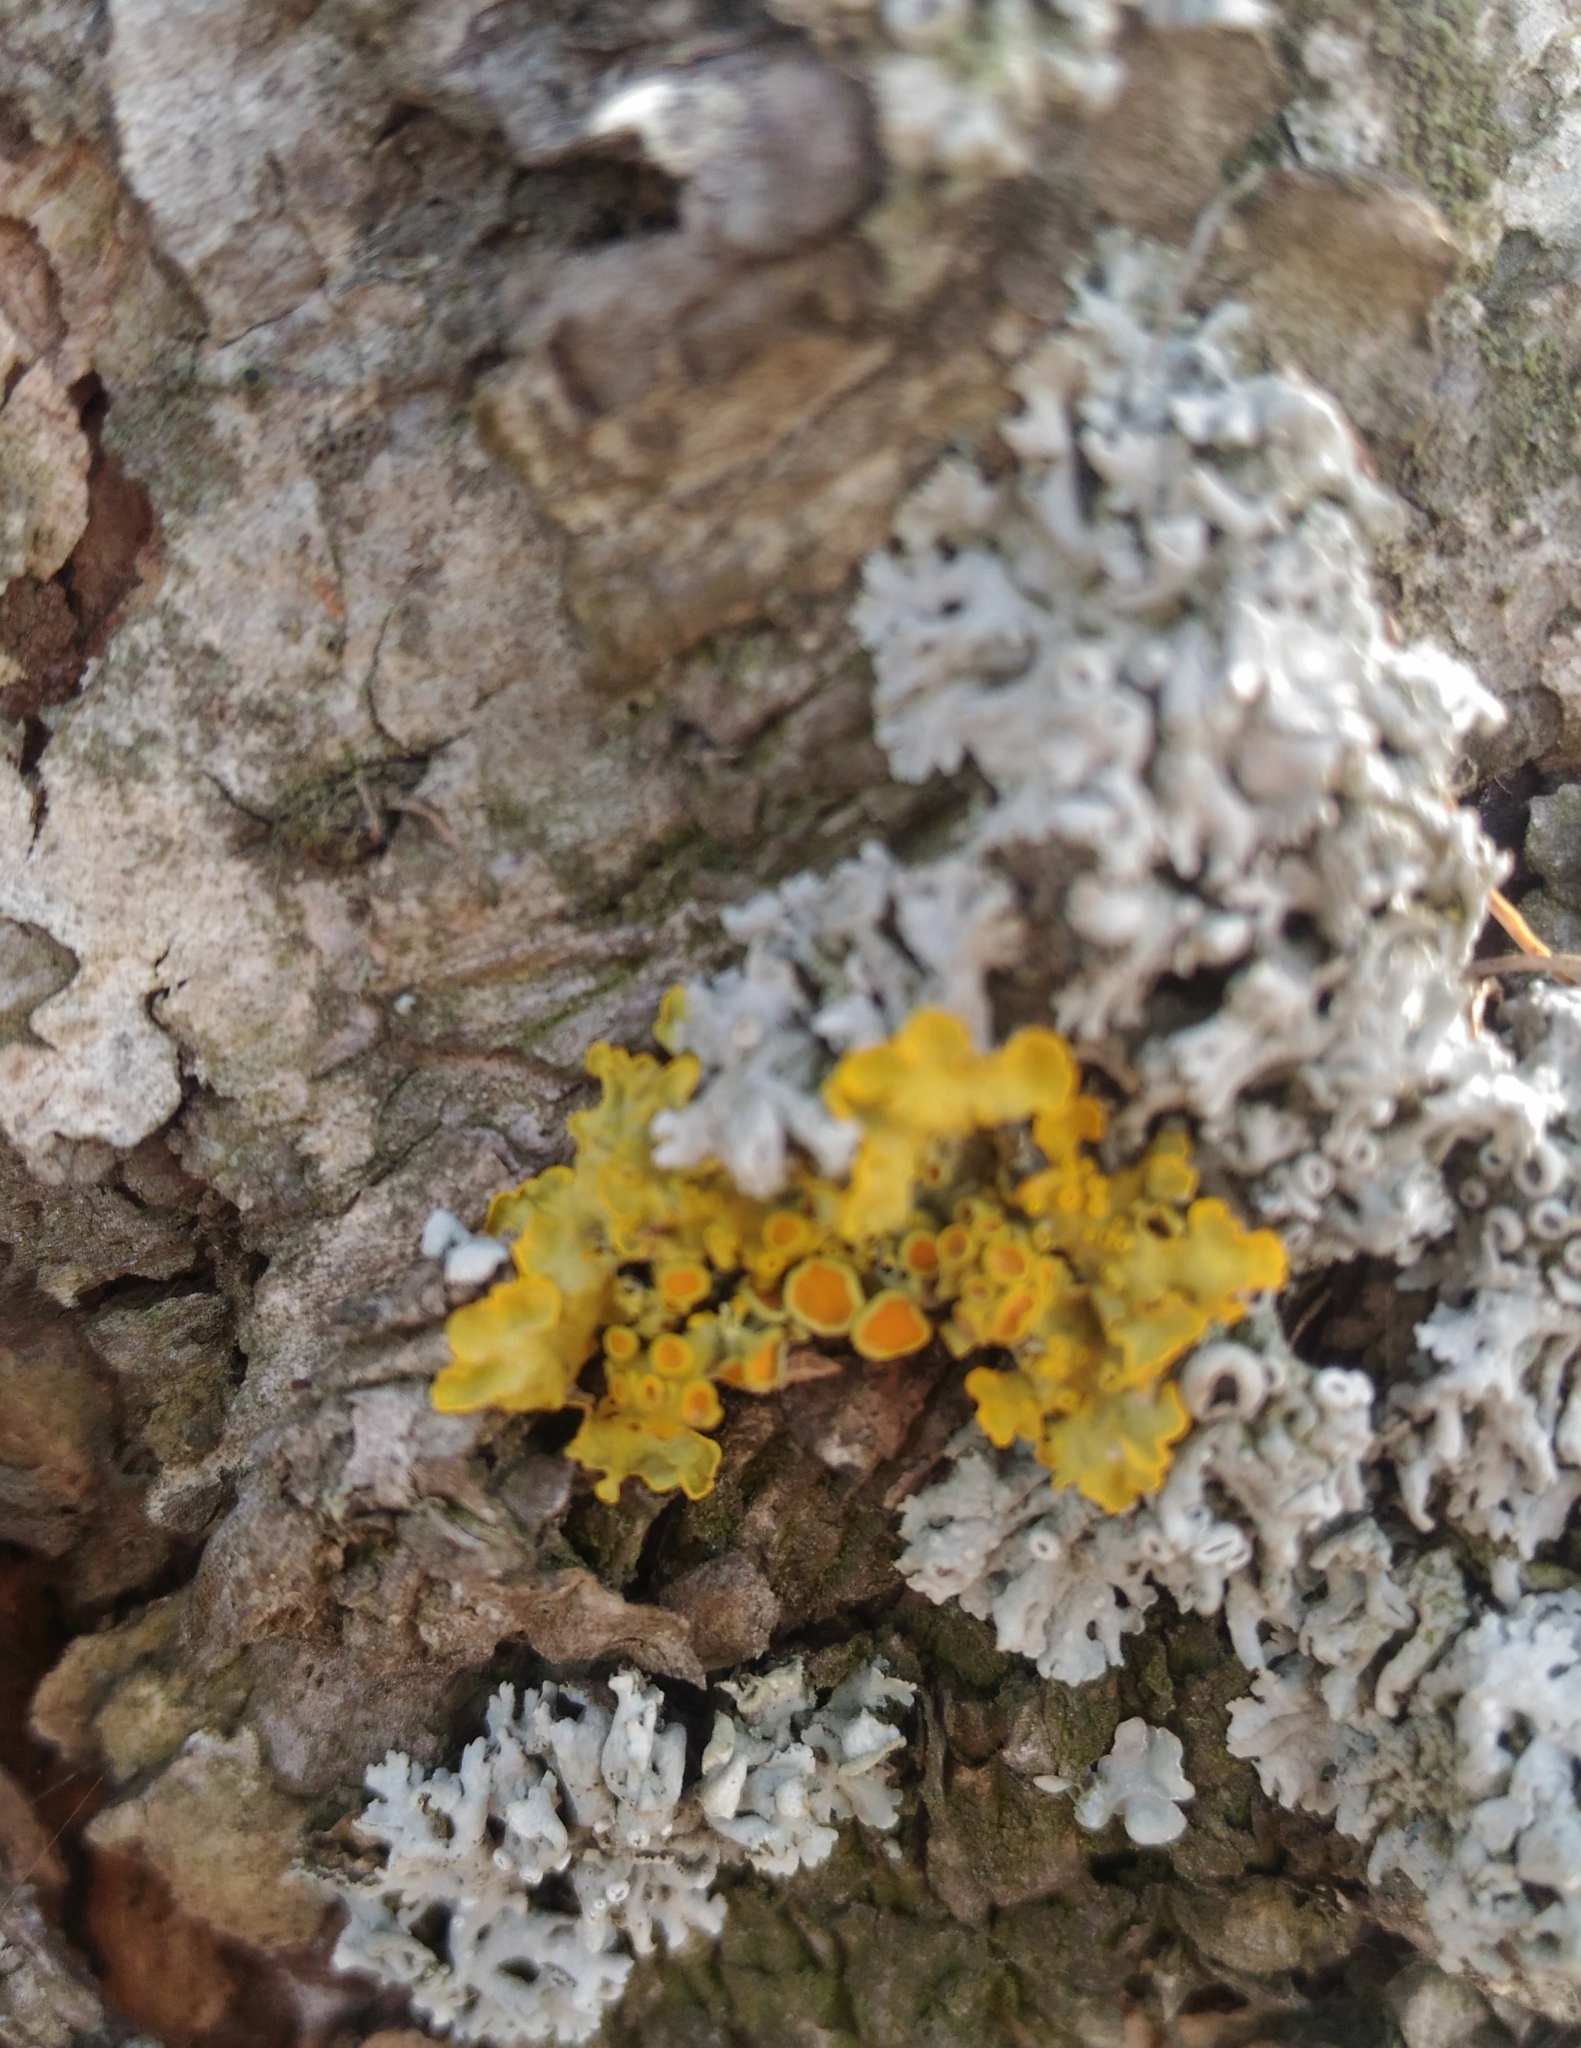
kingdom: Fungi
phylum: Ascomycota
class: Lecanoromycetes
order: Teloschistales
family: Teloschistaceae
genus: Xanthoria
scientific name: Xanthoria parietina
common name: Common orange lichen
